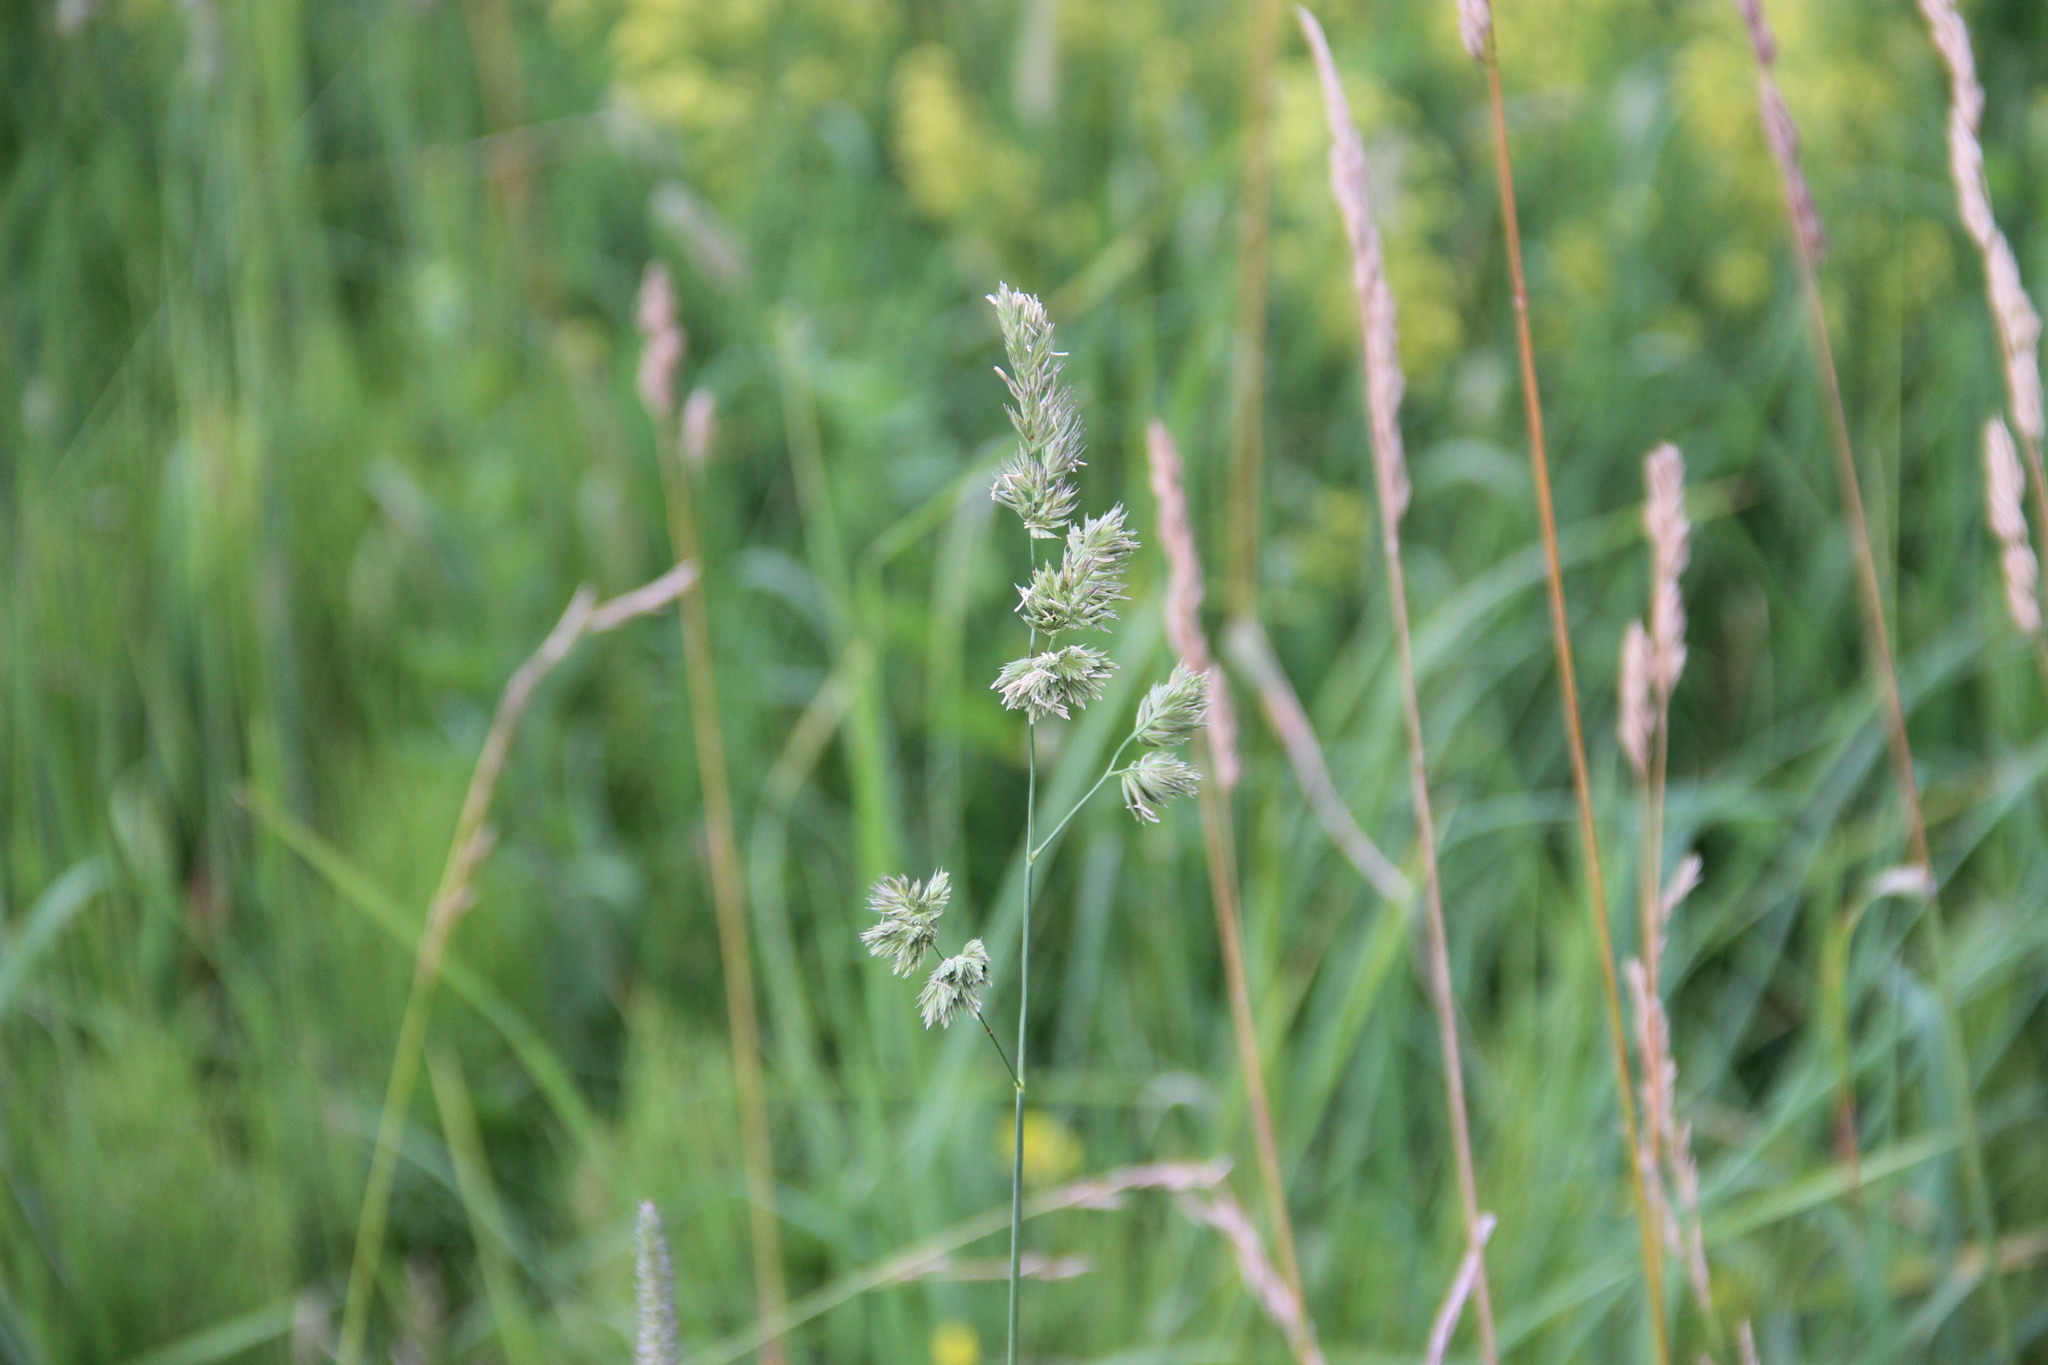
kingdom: Plantae
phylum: Tracheophyta
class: Liliopsida
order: Poales
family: Poaceae
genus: Dactylis
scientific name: Dactylis glomerata
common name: Orchardgrass
